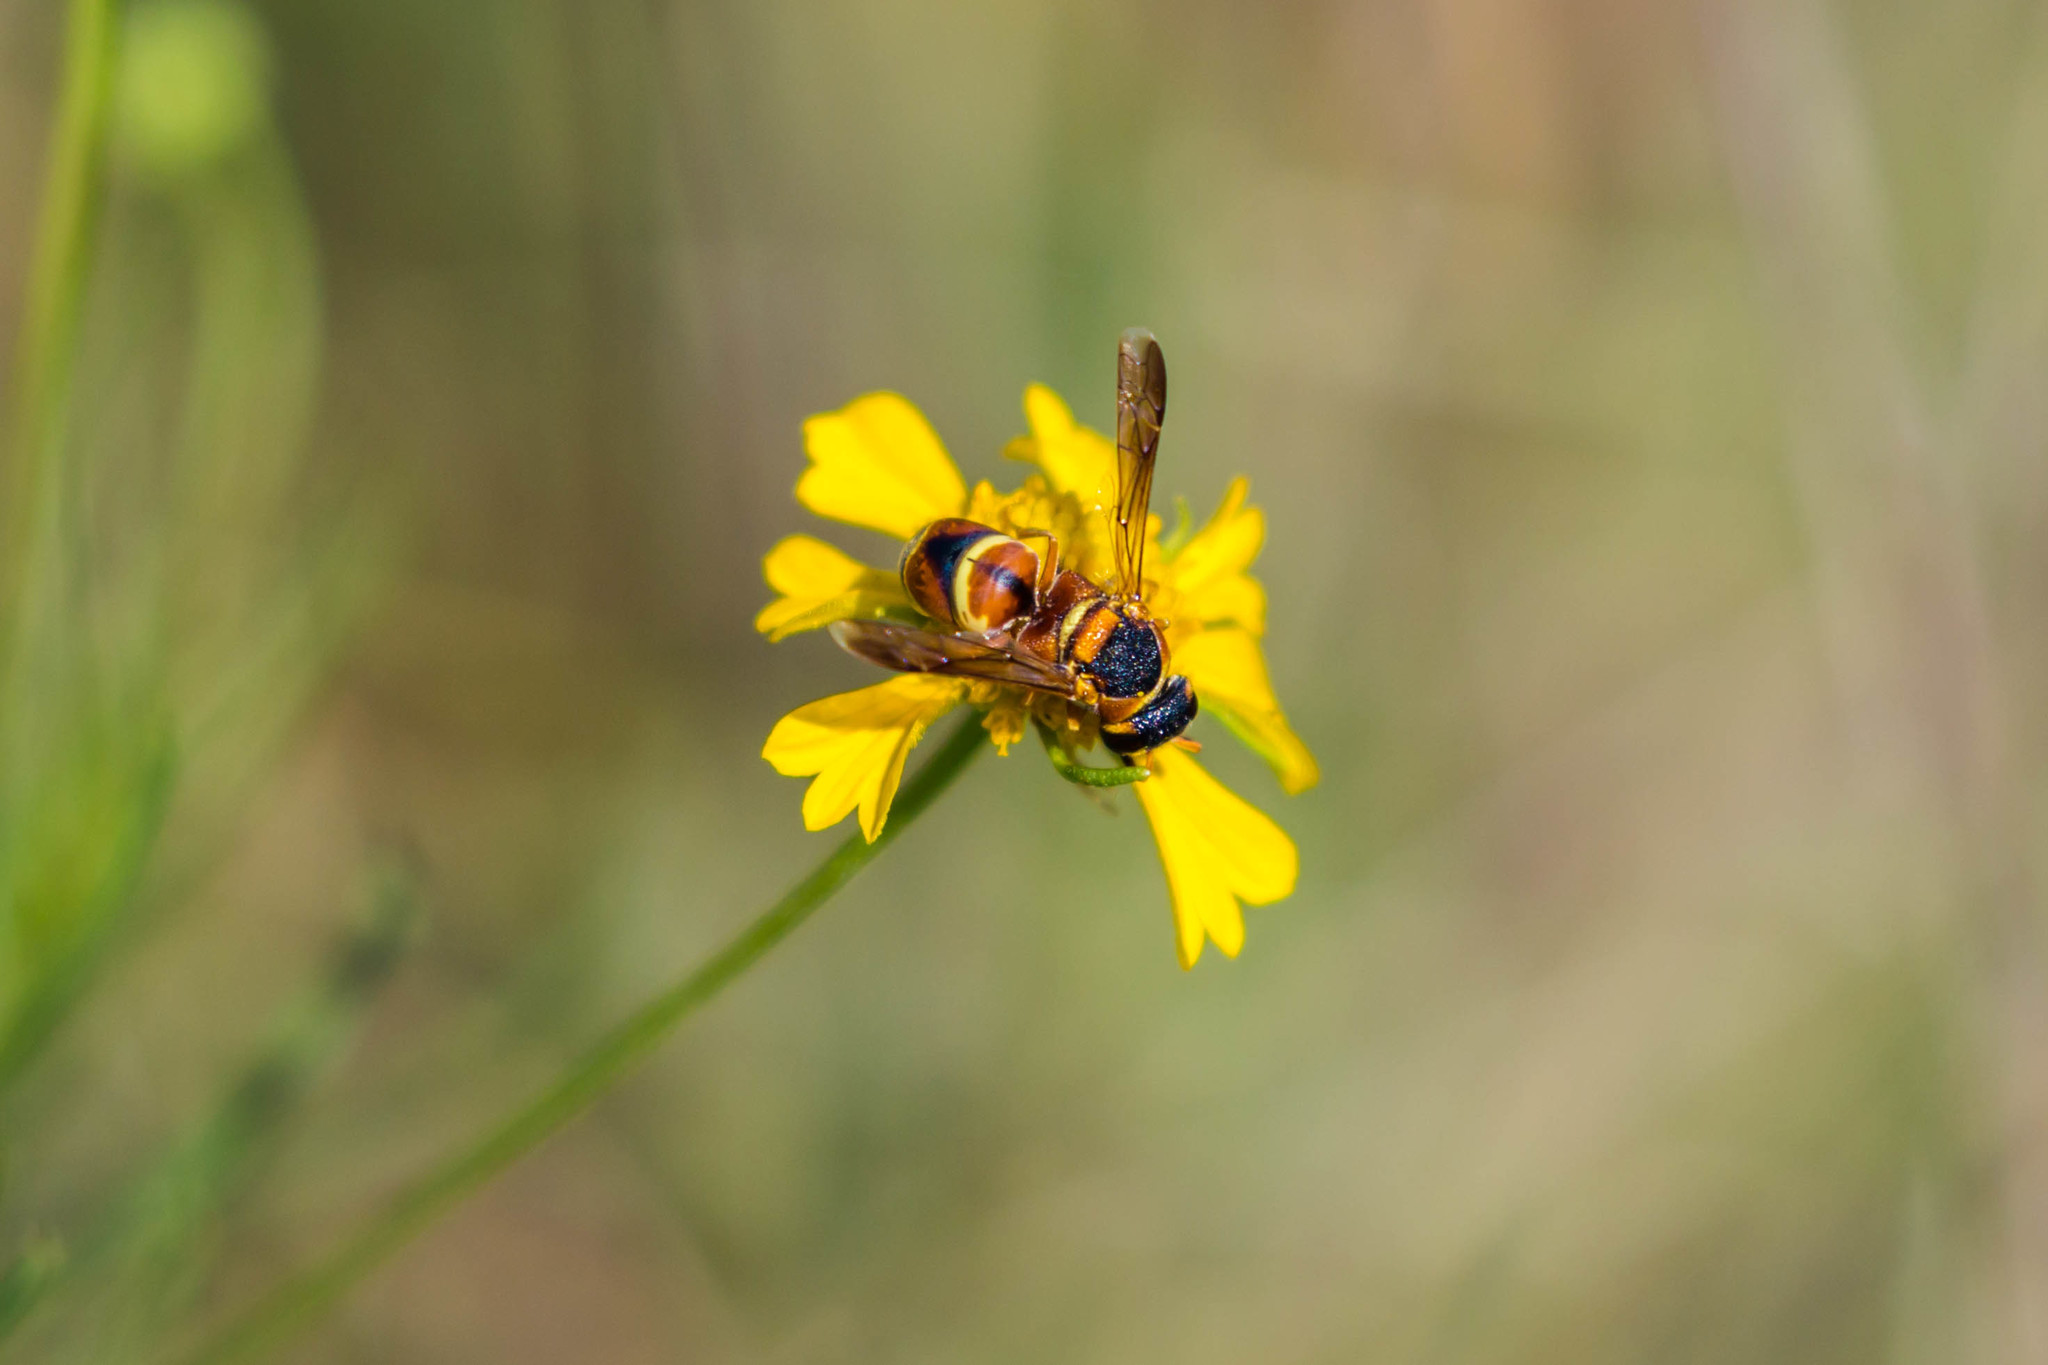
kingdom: Animalia
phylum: Arthropoda
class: Insecta
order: Hymenoptera
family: Eumenidae
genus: Euodynerus
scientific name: Euodynerus hidalgo
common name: Wasp
